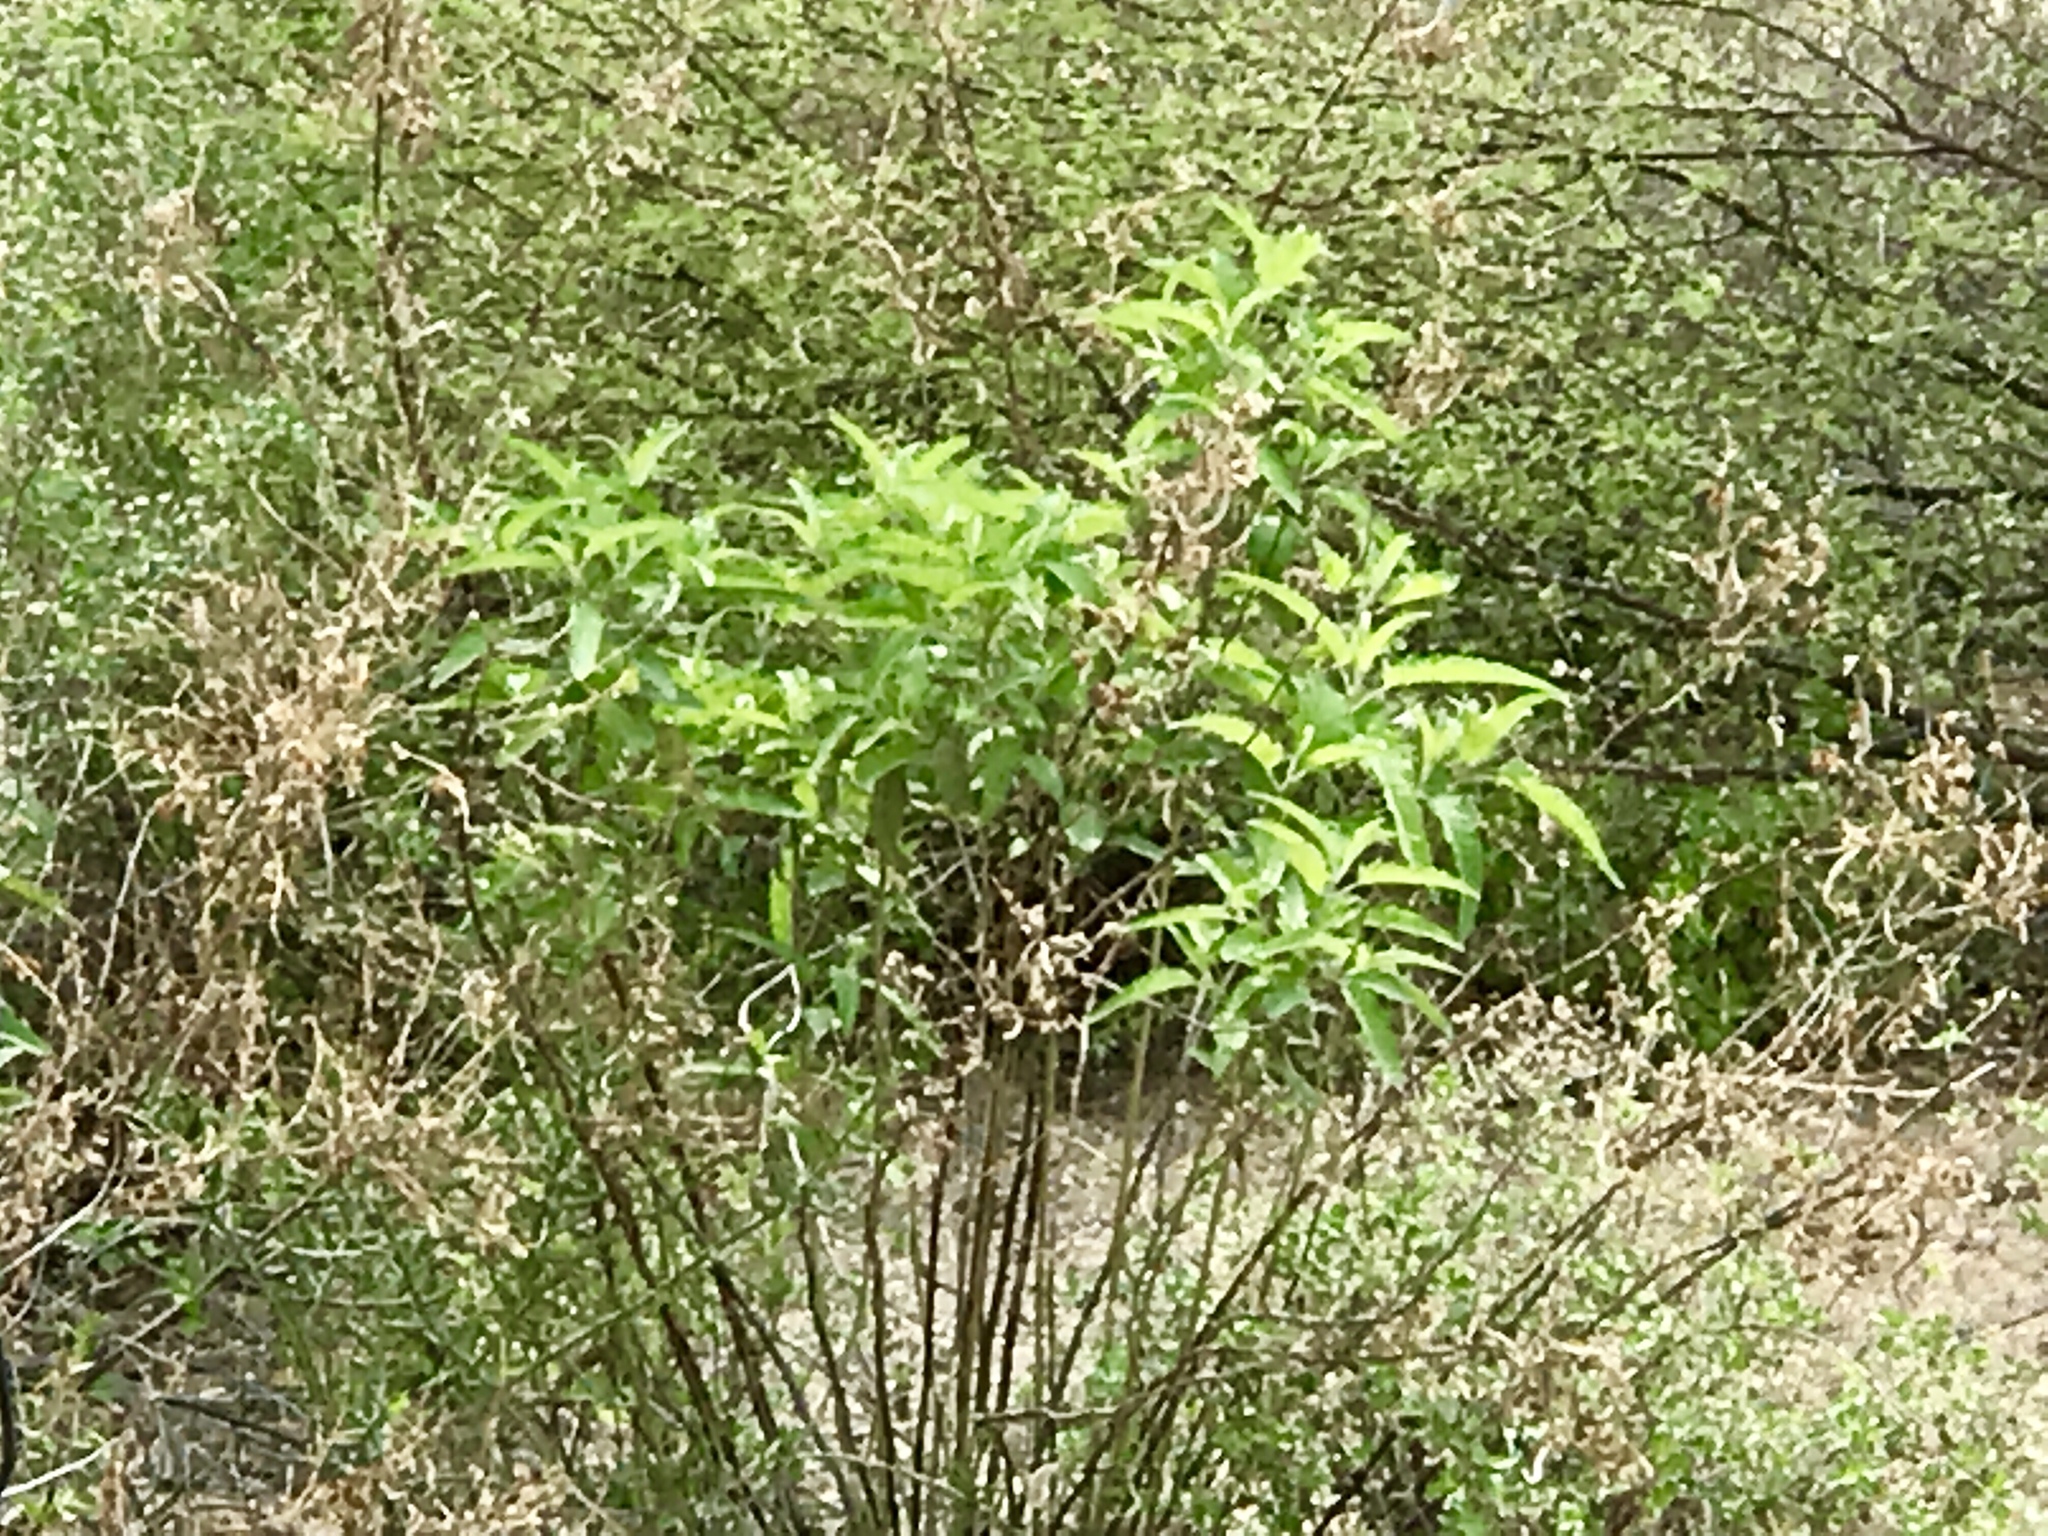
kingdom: Plantae
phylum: Tracheophyta
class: Magnoliopsida
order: Asterales
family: Asteraceae
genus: Ambrosia
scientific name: Ambrosia ambrosioides
